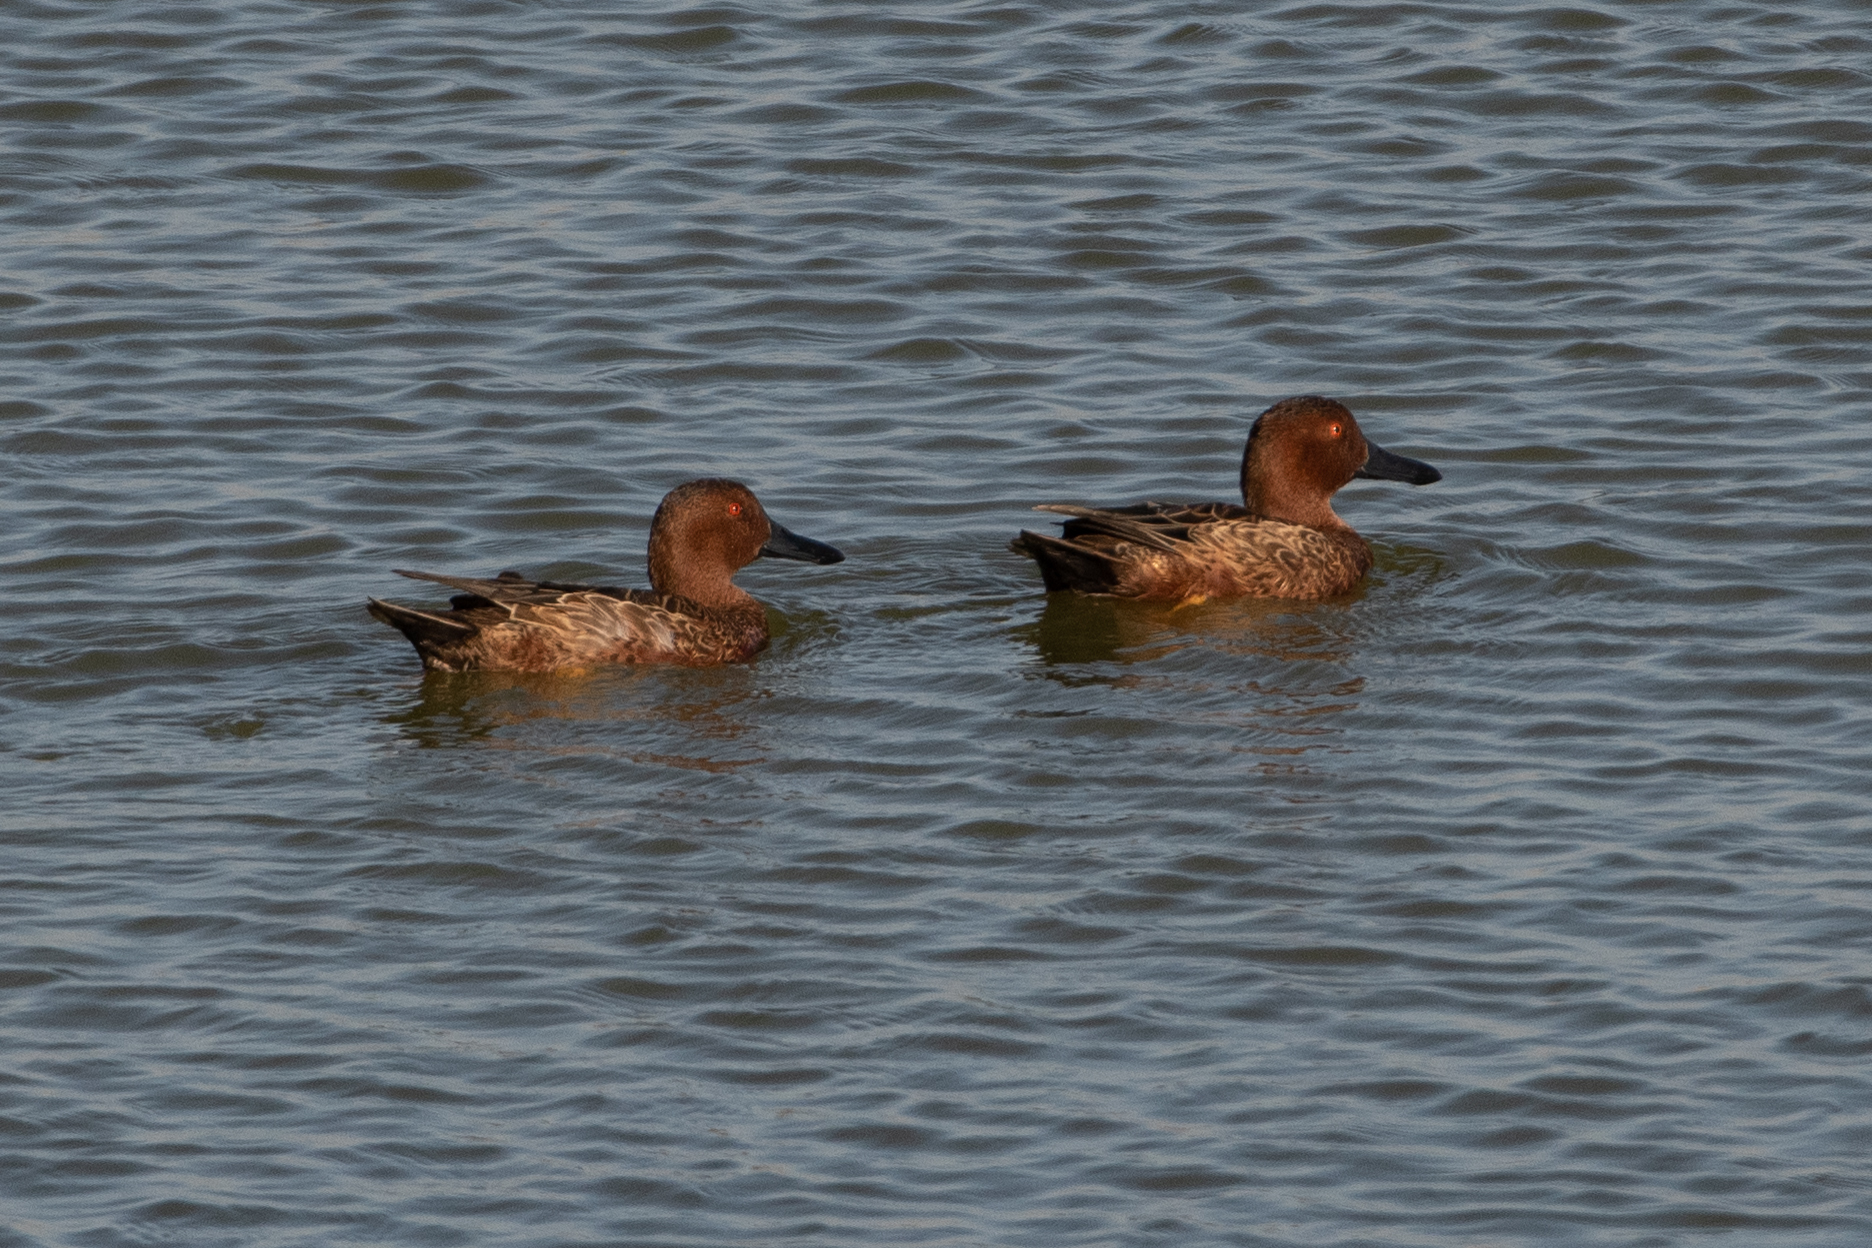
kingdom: Animalia
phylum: Chordata
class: Aves
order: Anseriformes
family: Anatidae
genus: Spatula
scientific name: Spatula cyanoptera
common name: Cinnamon teal
